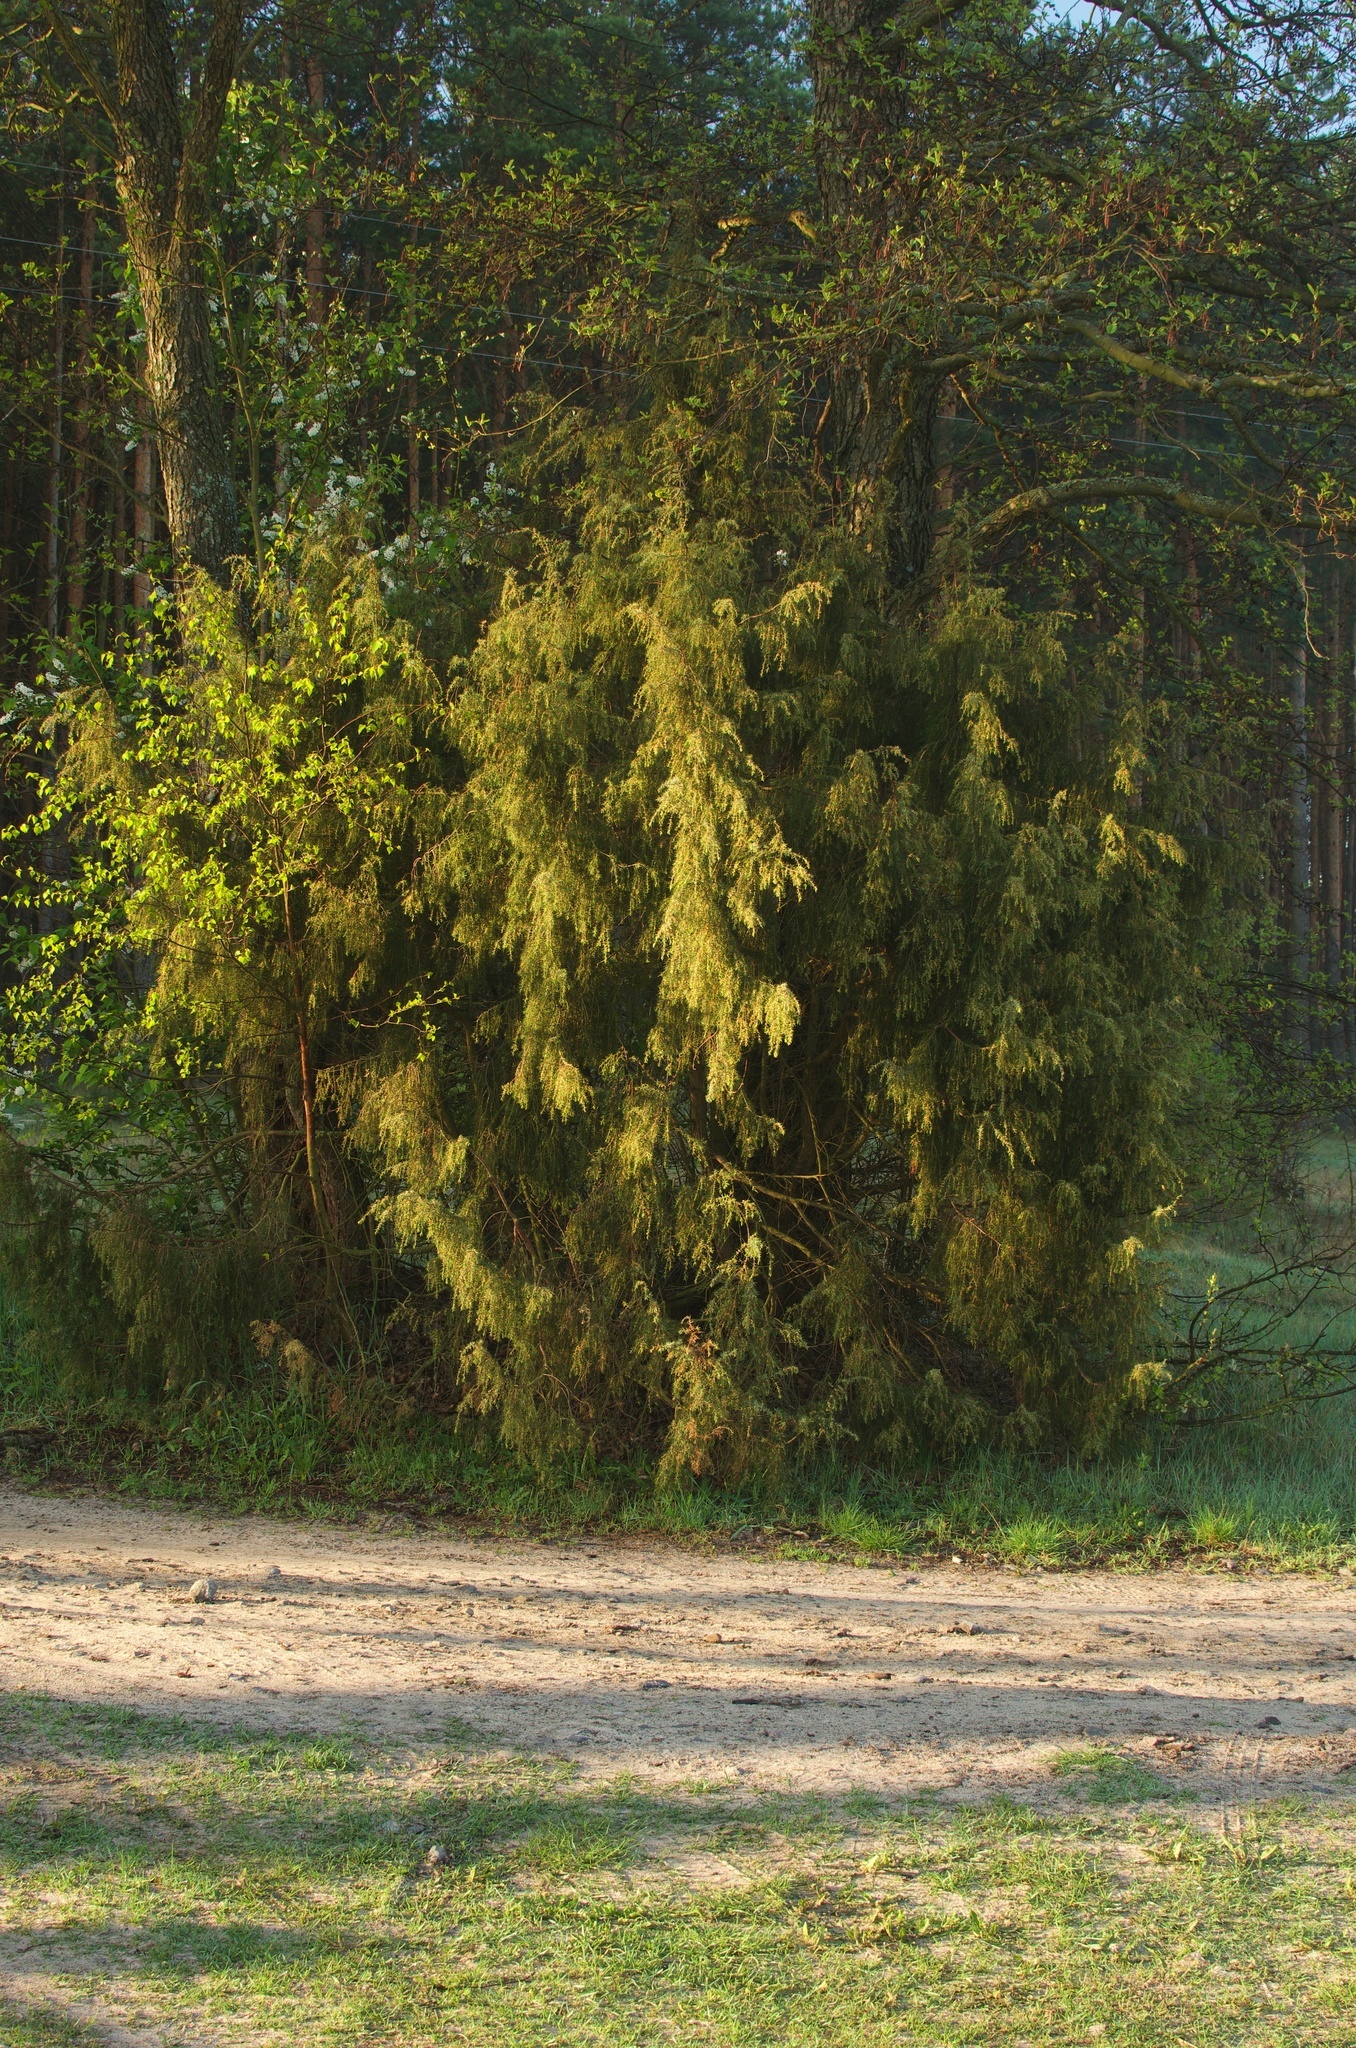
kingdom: Plantae
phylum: Tracheophyta
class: Pinopsida
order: Pinales
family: Cupressaceae
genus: Juniperus
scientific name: Juniperus communis
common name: Common juniper
